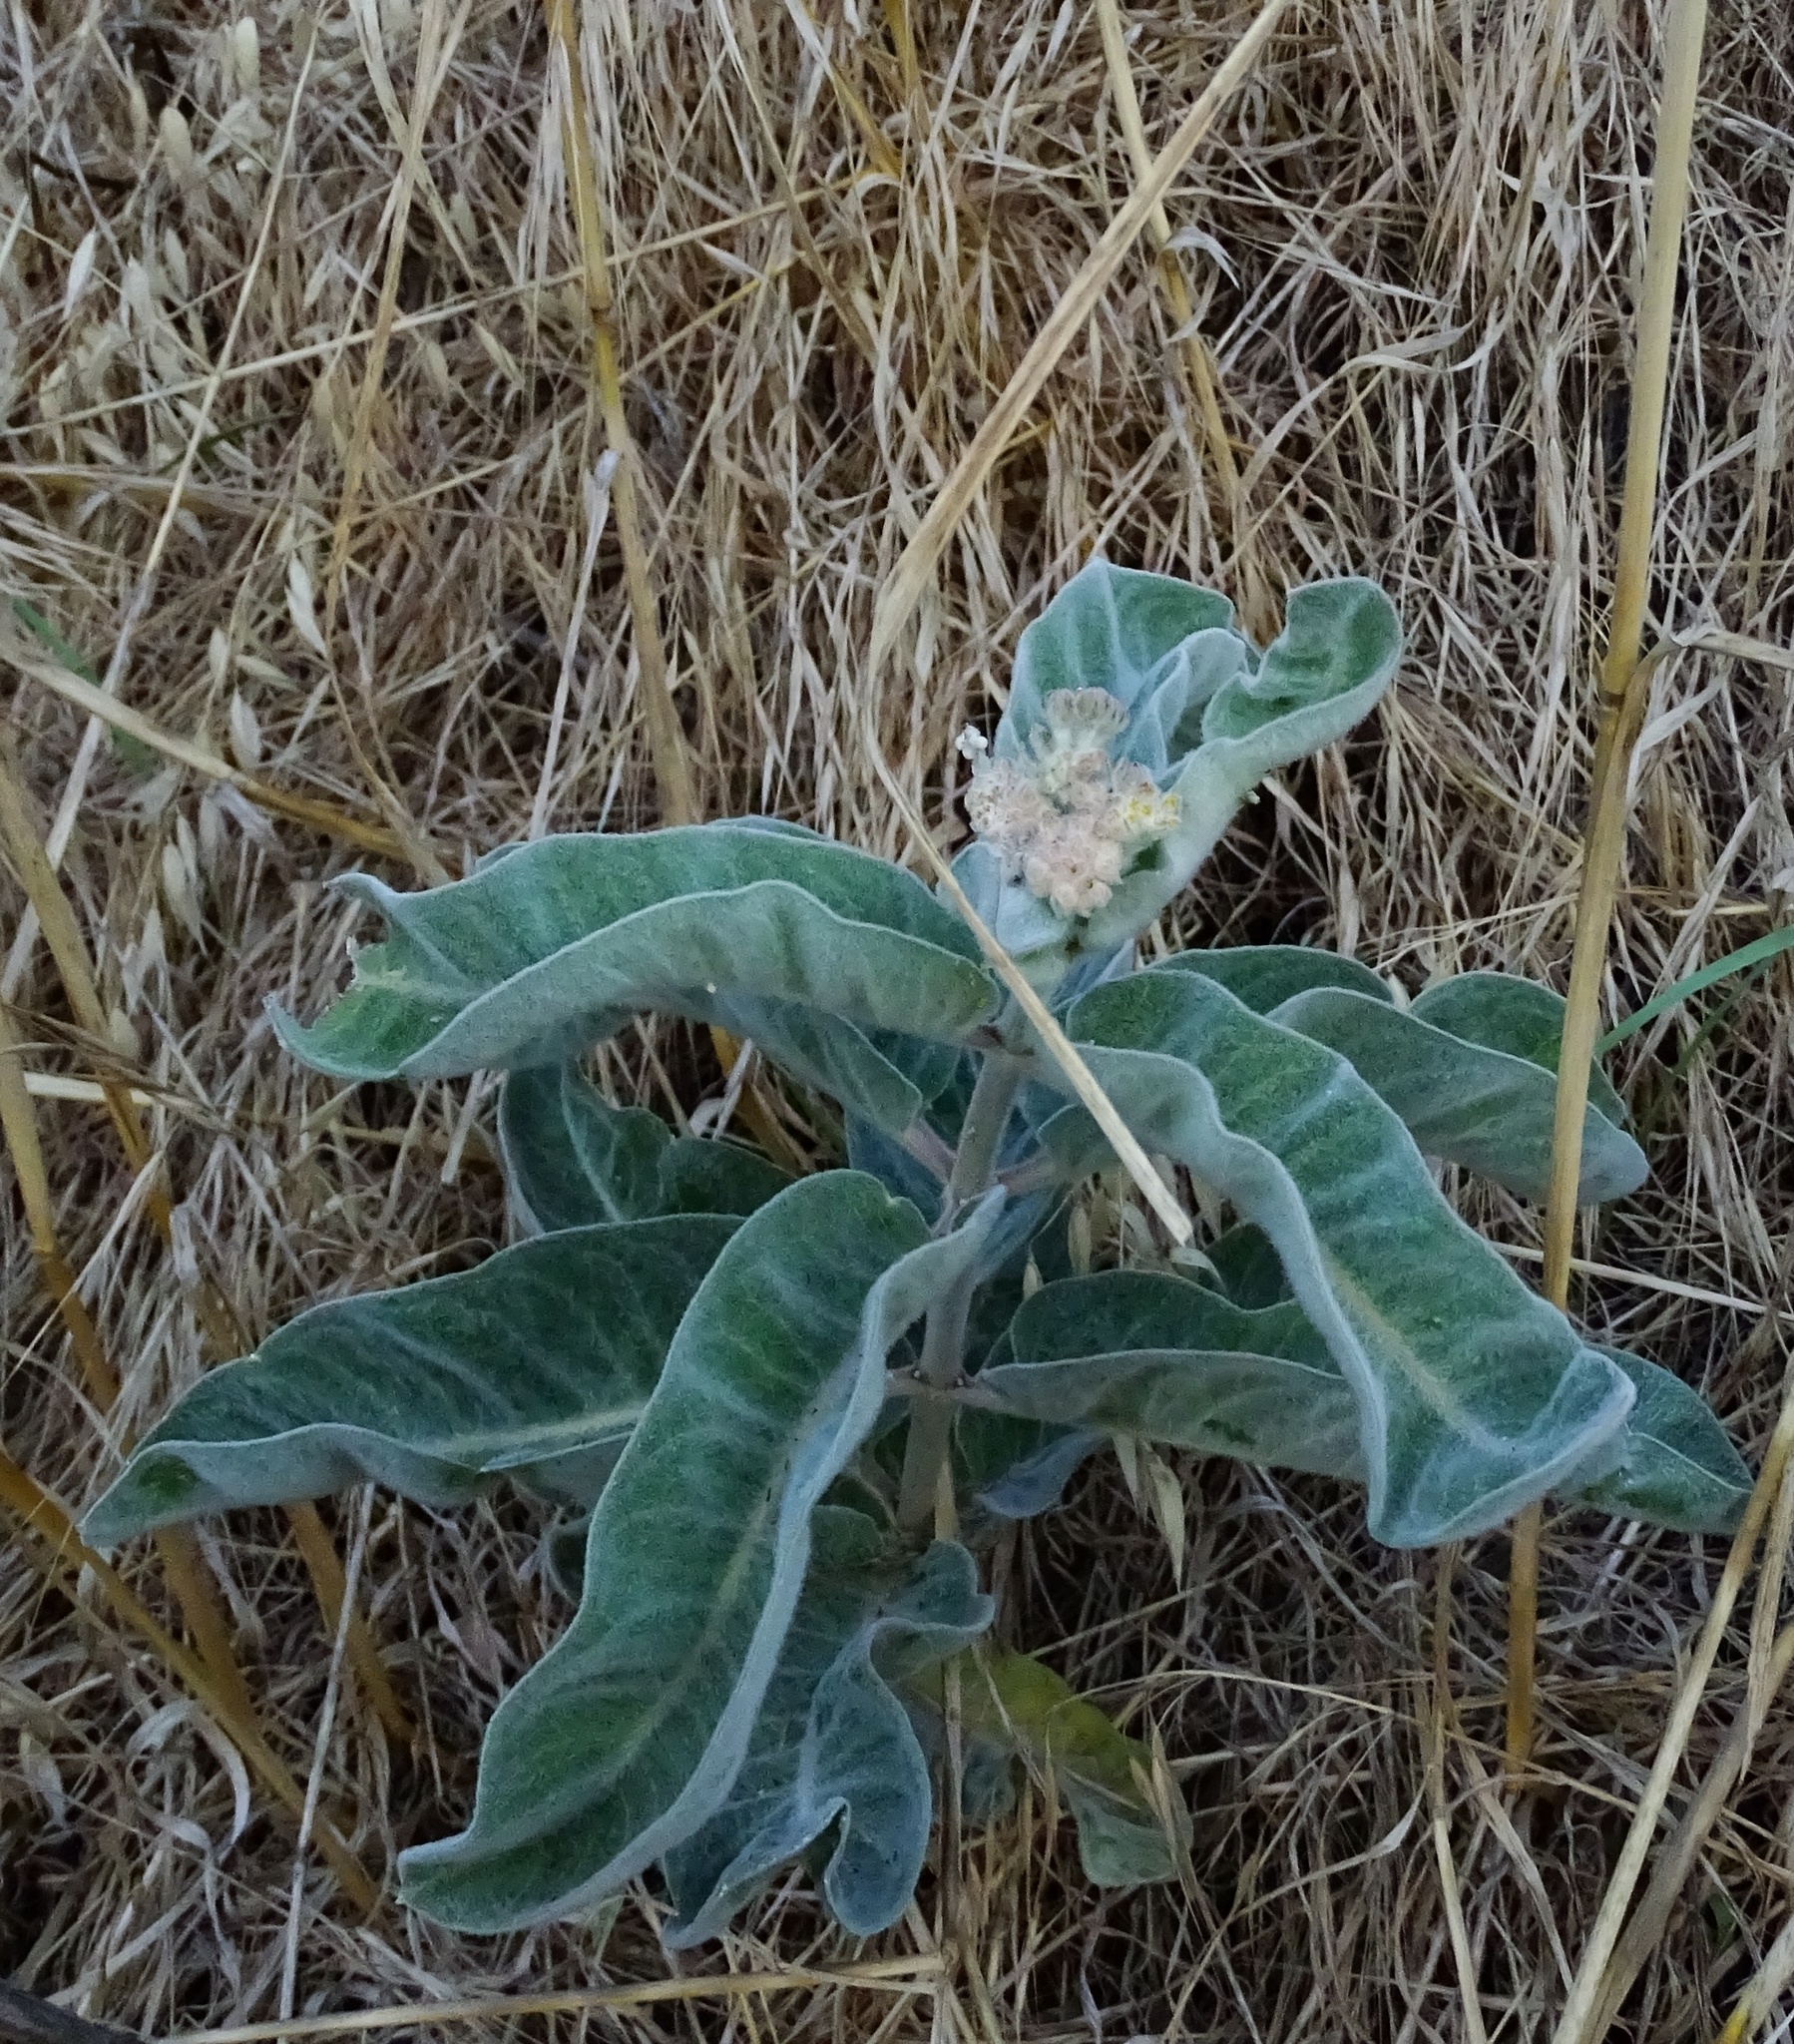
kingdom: Plantae
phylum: Tracheophyta
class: Magnoliopsida
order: Gentianales
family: Apocynaceae
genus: Asclepias
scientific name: Asclepias eriocarpa
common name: Indian milkweed
